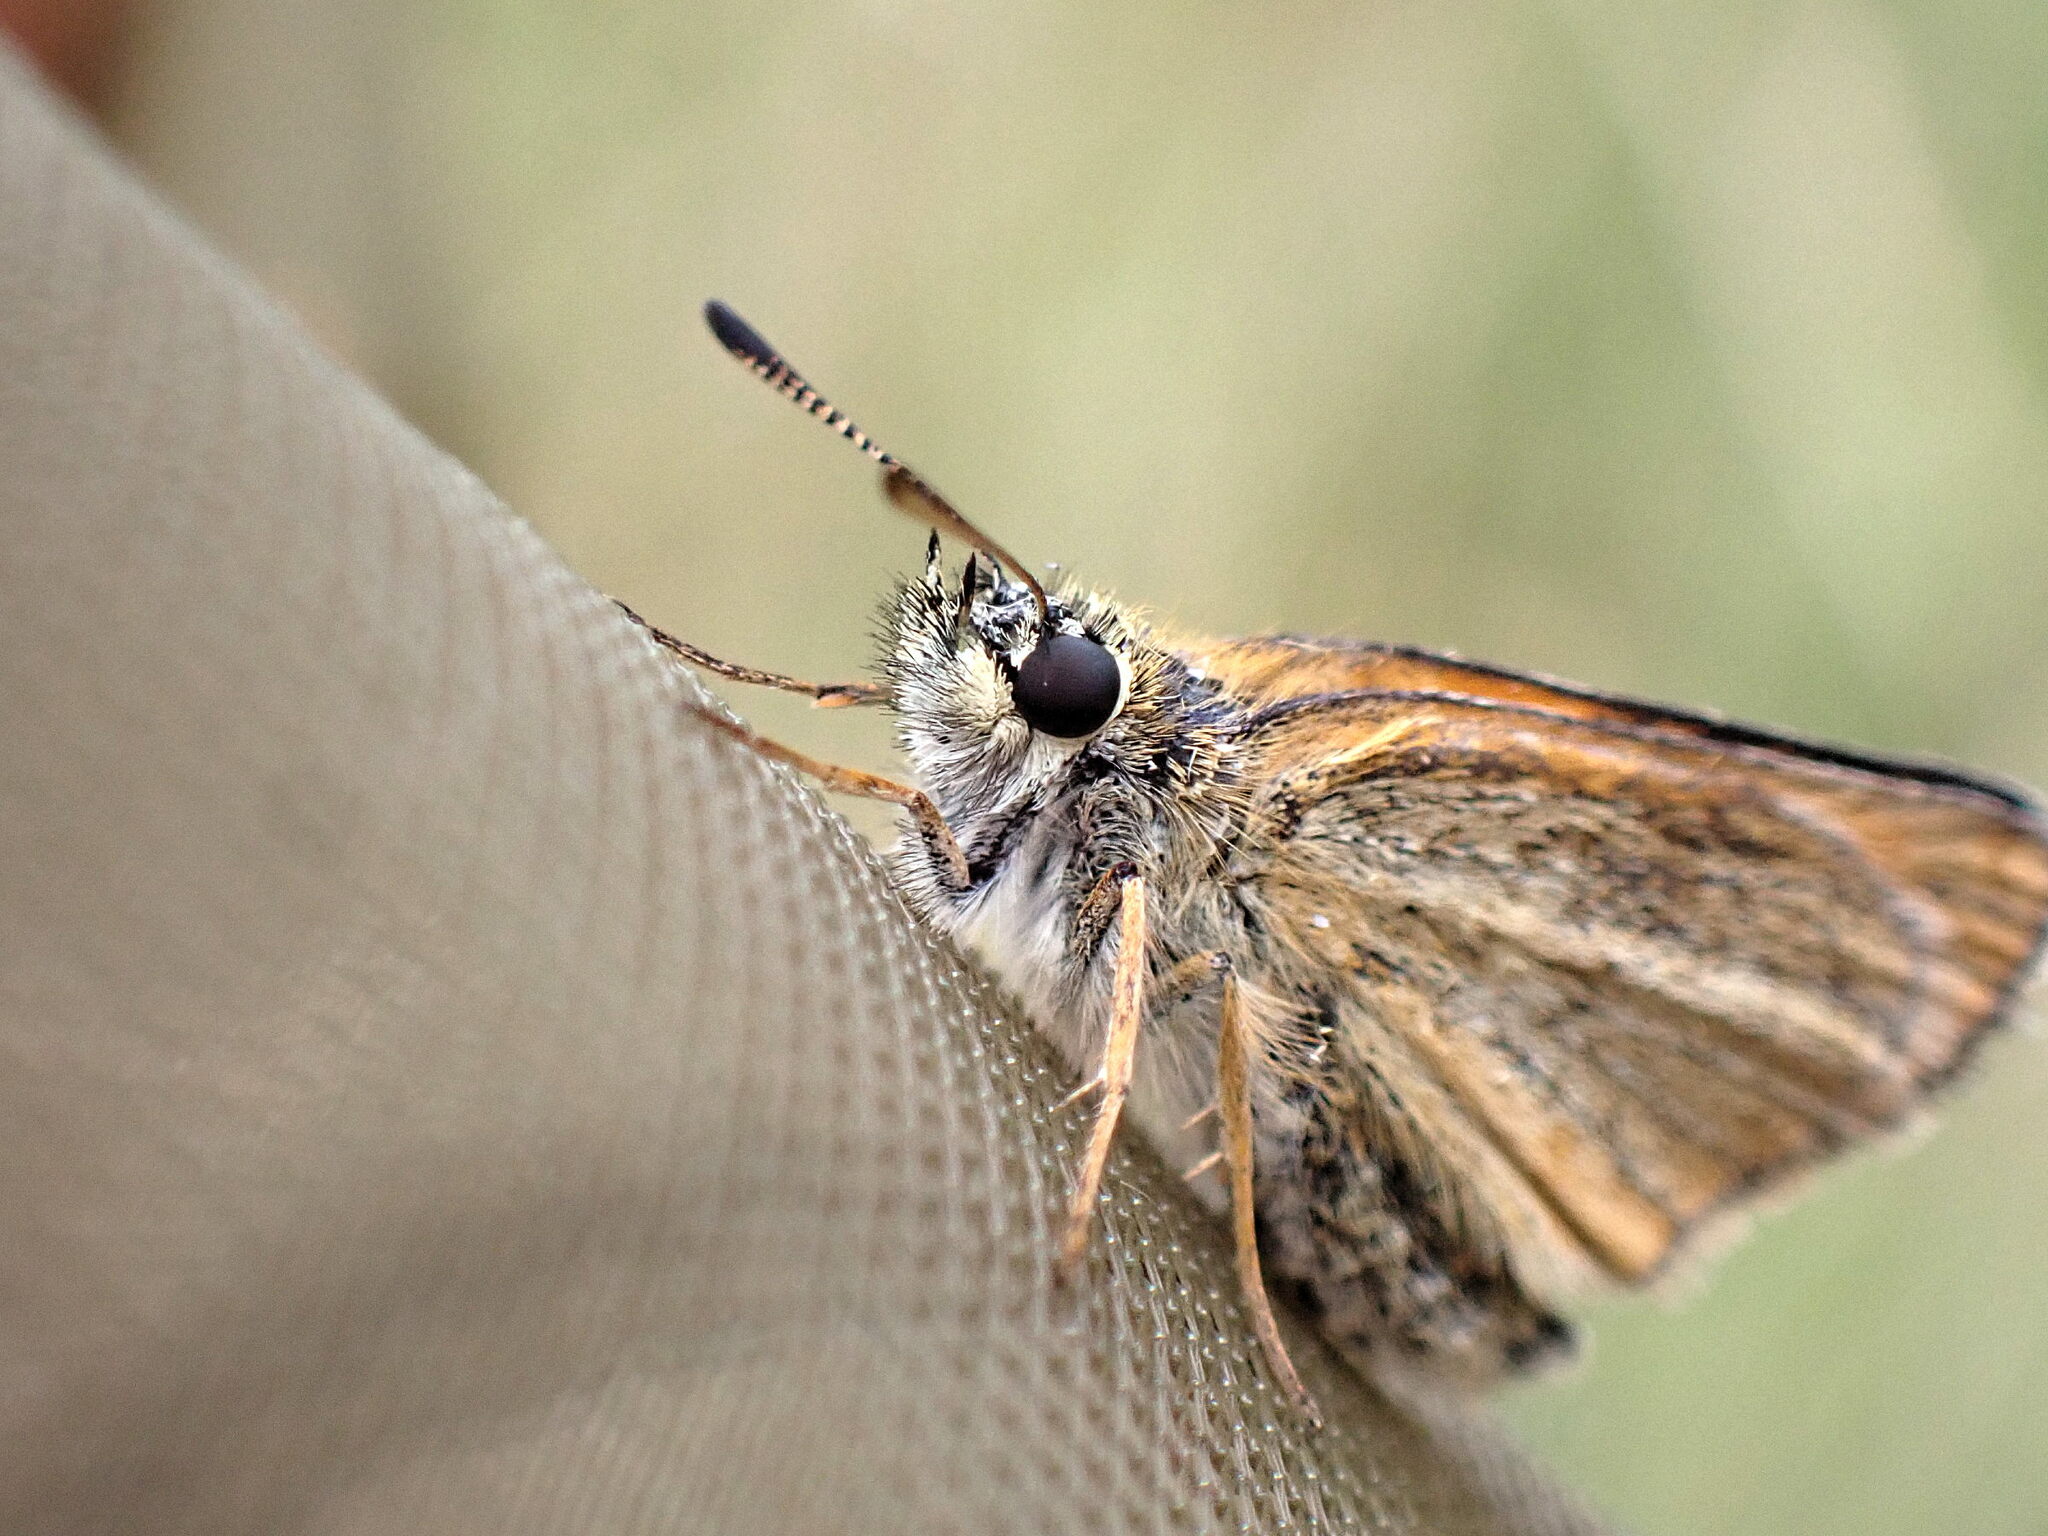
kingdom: Animalia
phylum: Arthropoda
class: Insecta
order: Lepidoptera
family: Hesperiidae
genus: Thymelicus
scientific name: Thymelicus lineola
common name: Essex skipper
